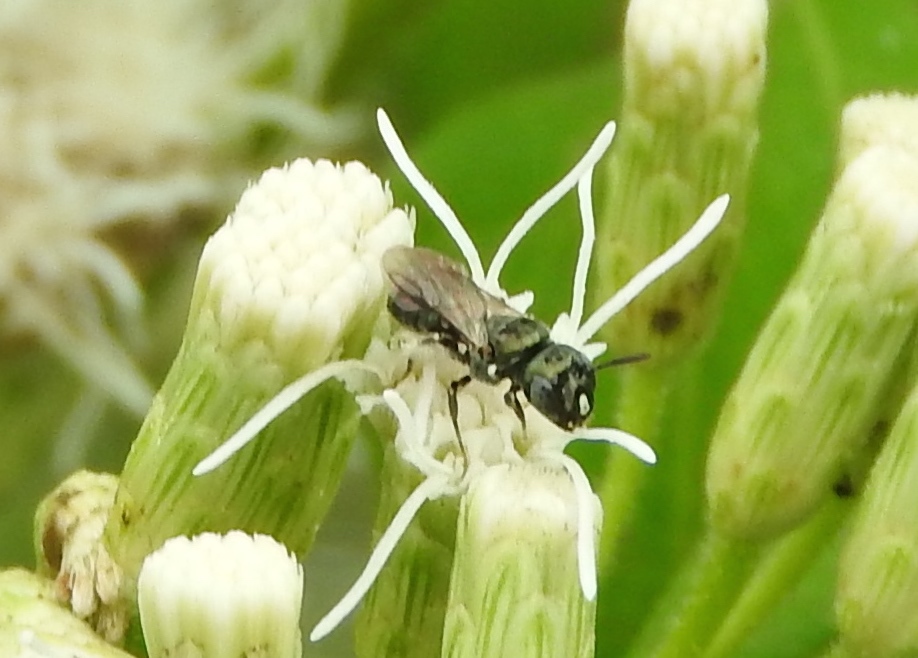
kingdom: Animalia
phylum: Arthropoda
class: Insecta
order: Hymenoptera
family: Apidae
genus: Ceratina
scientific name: Ceratina
